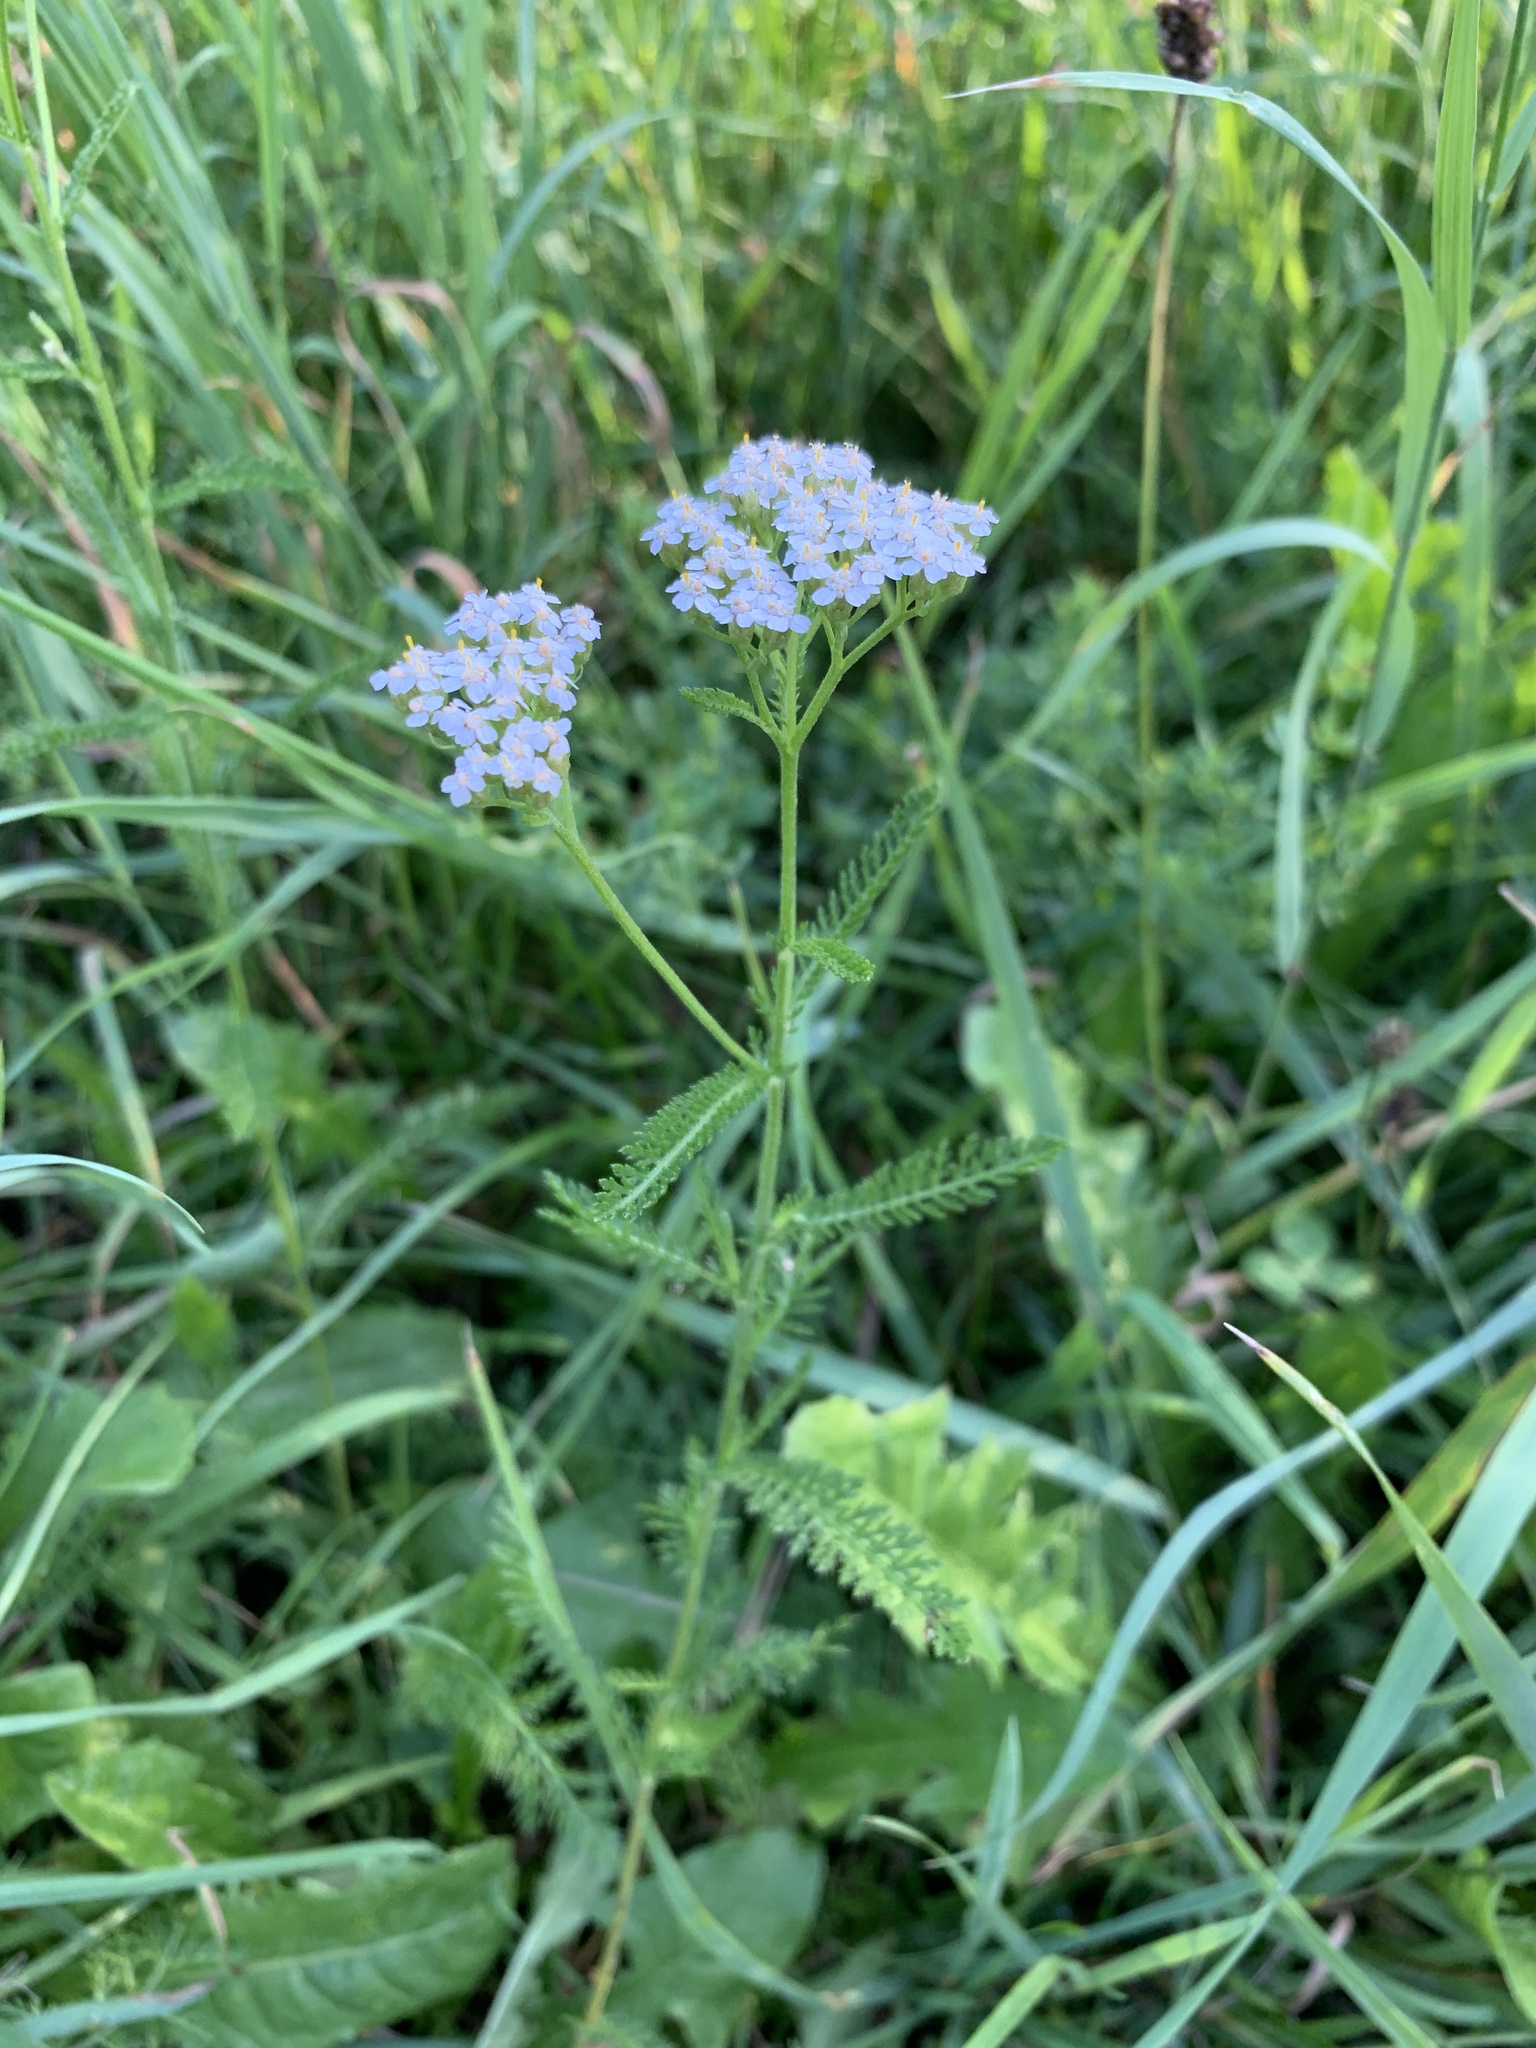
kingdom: Plantae
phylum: Tracheophyta
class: Magnoliopsida
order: Asterales
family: Asteraceae
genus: Achillea
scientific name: Achillea millefolium
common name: Yarrow
